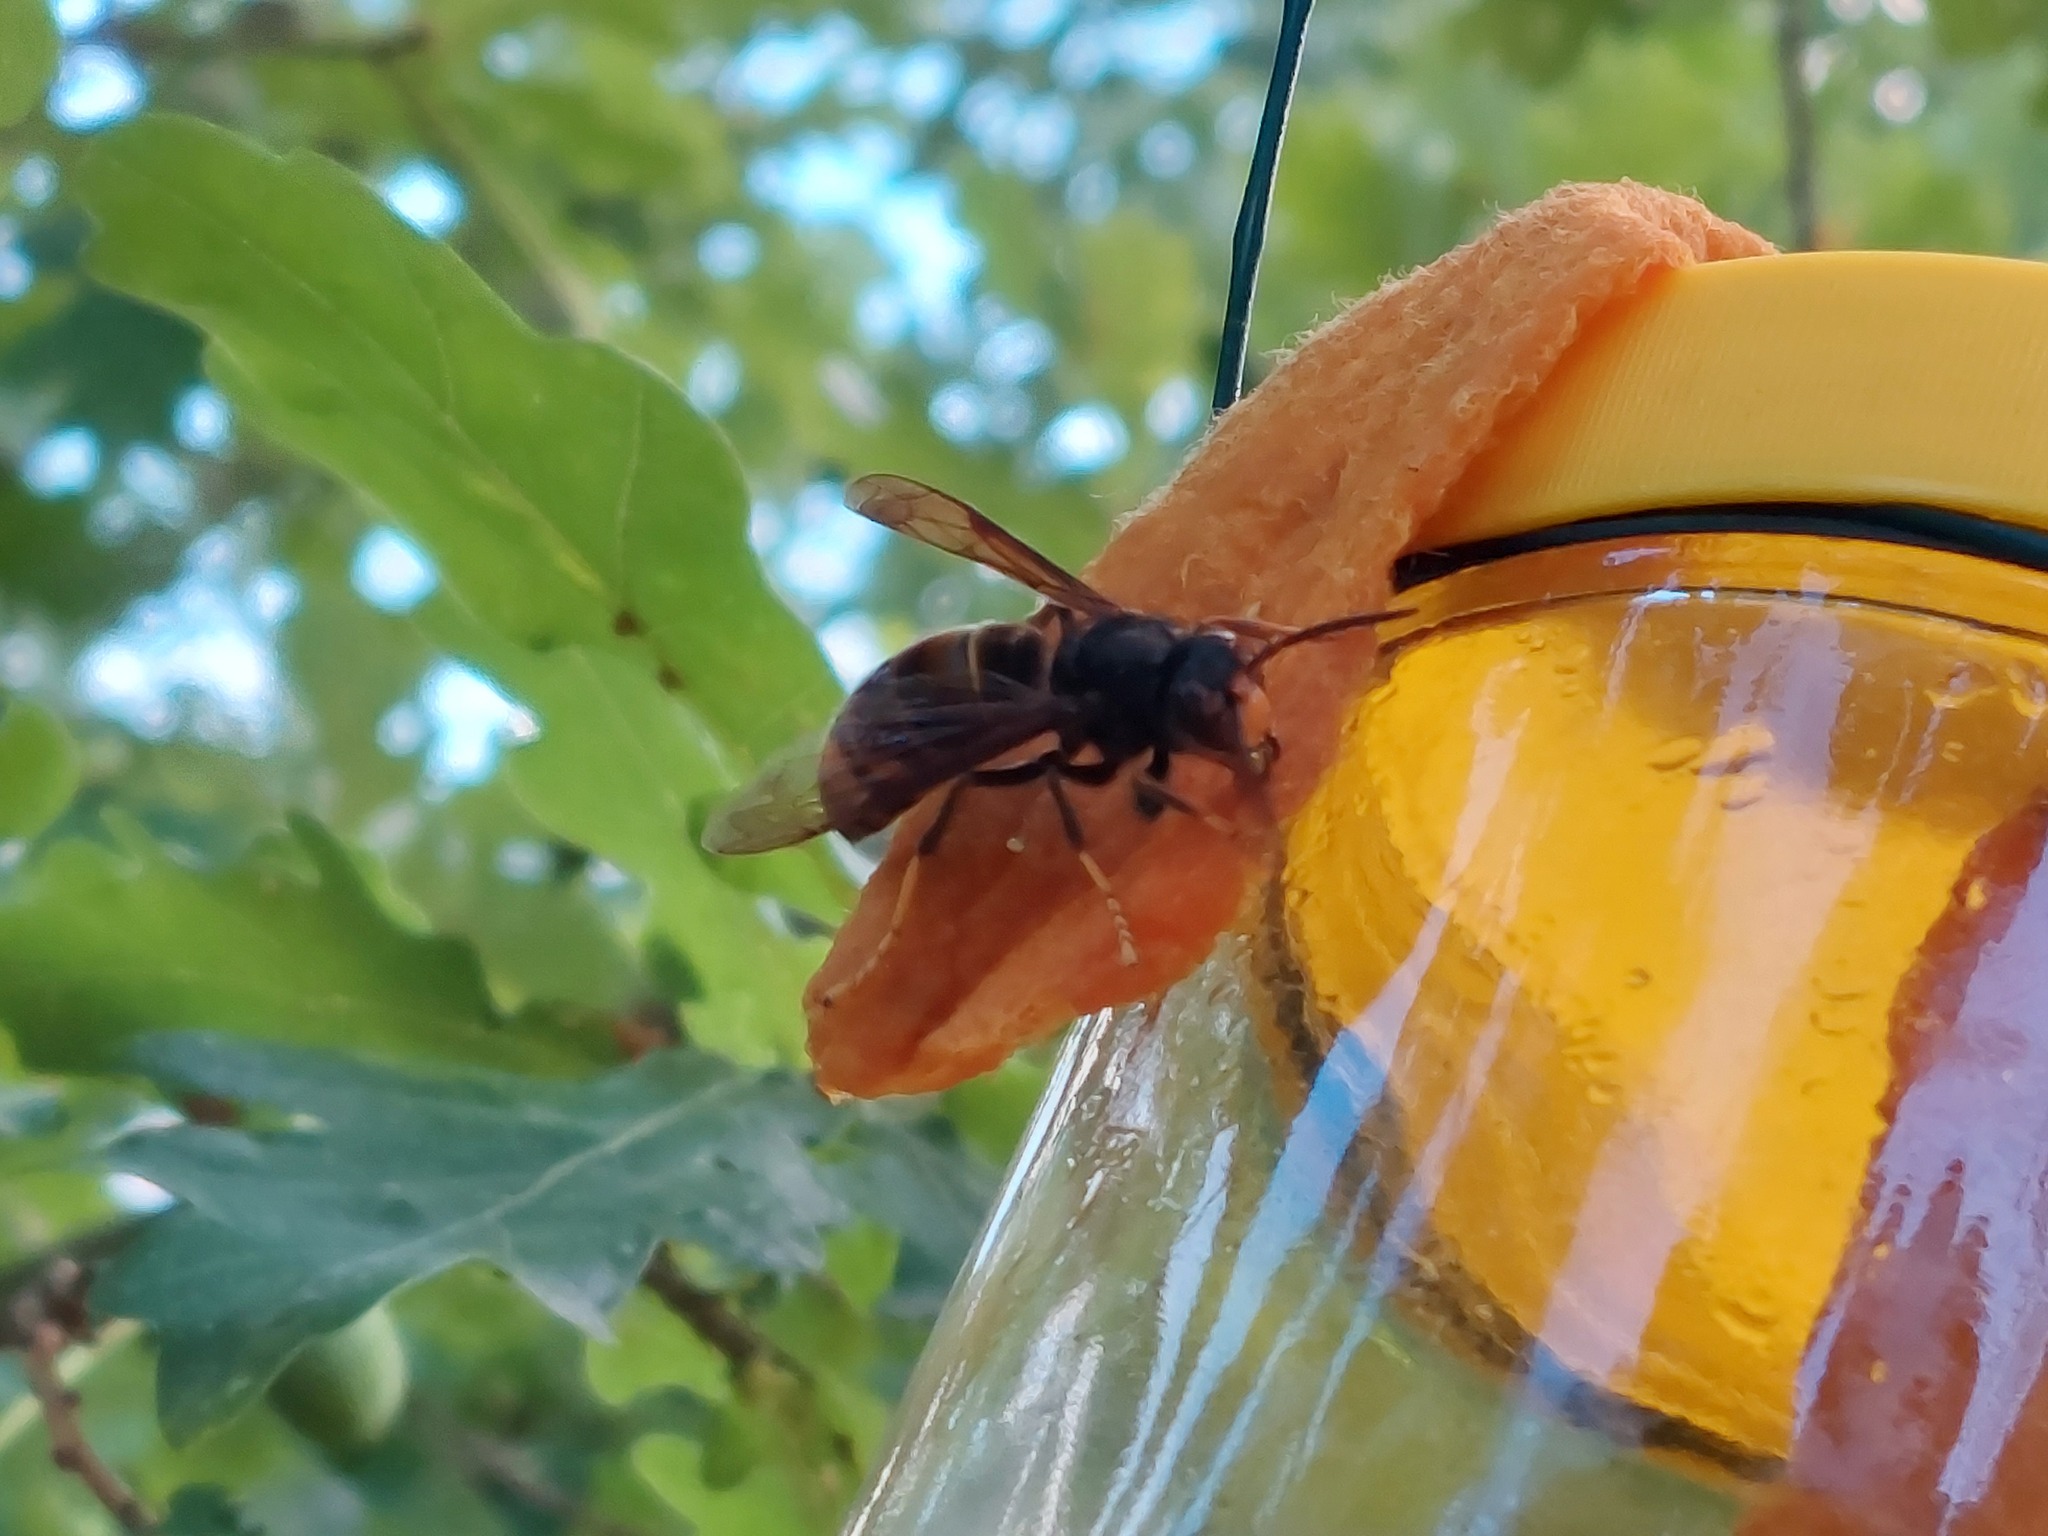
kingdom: Animalia
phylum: Arthropoda
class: Insecta
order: Hymenoptera
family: Vespidae
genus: Vespa
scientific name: Vespa velutina
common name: Asian hornet
